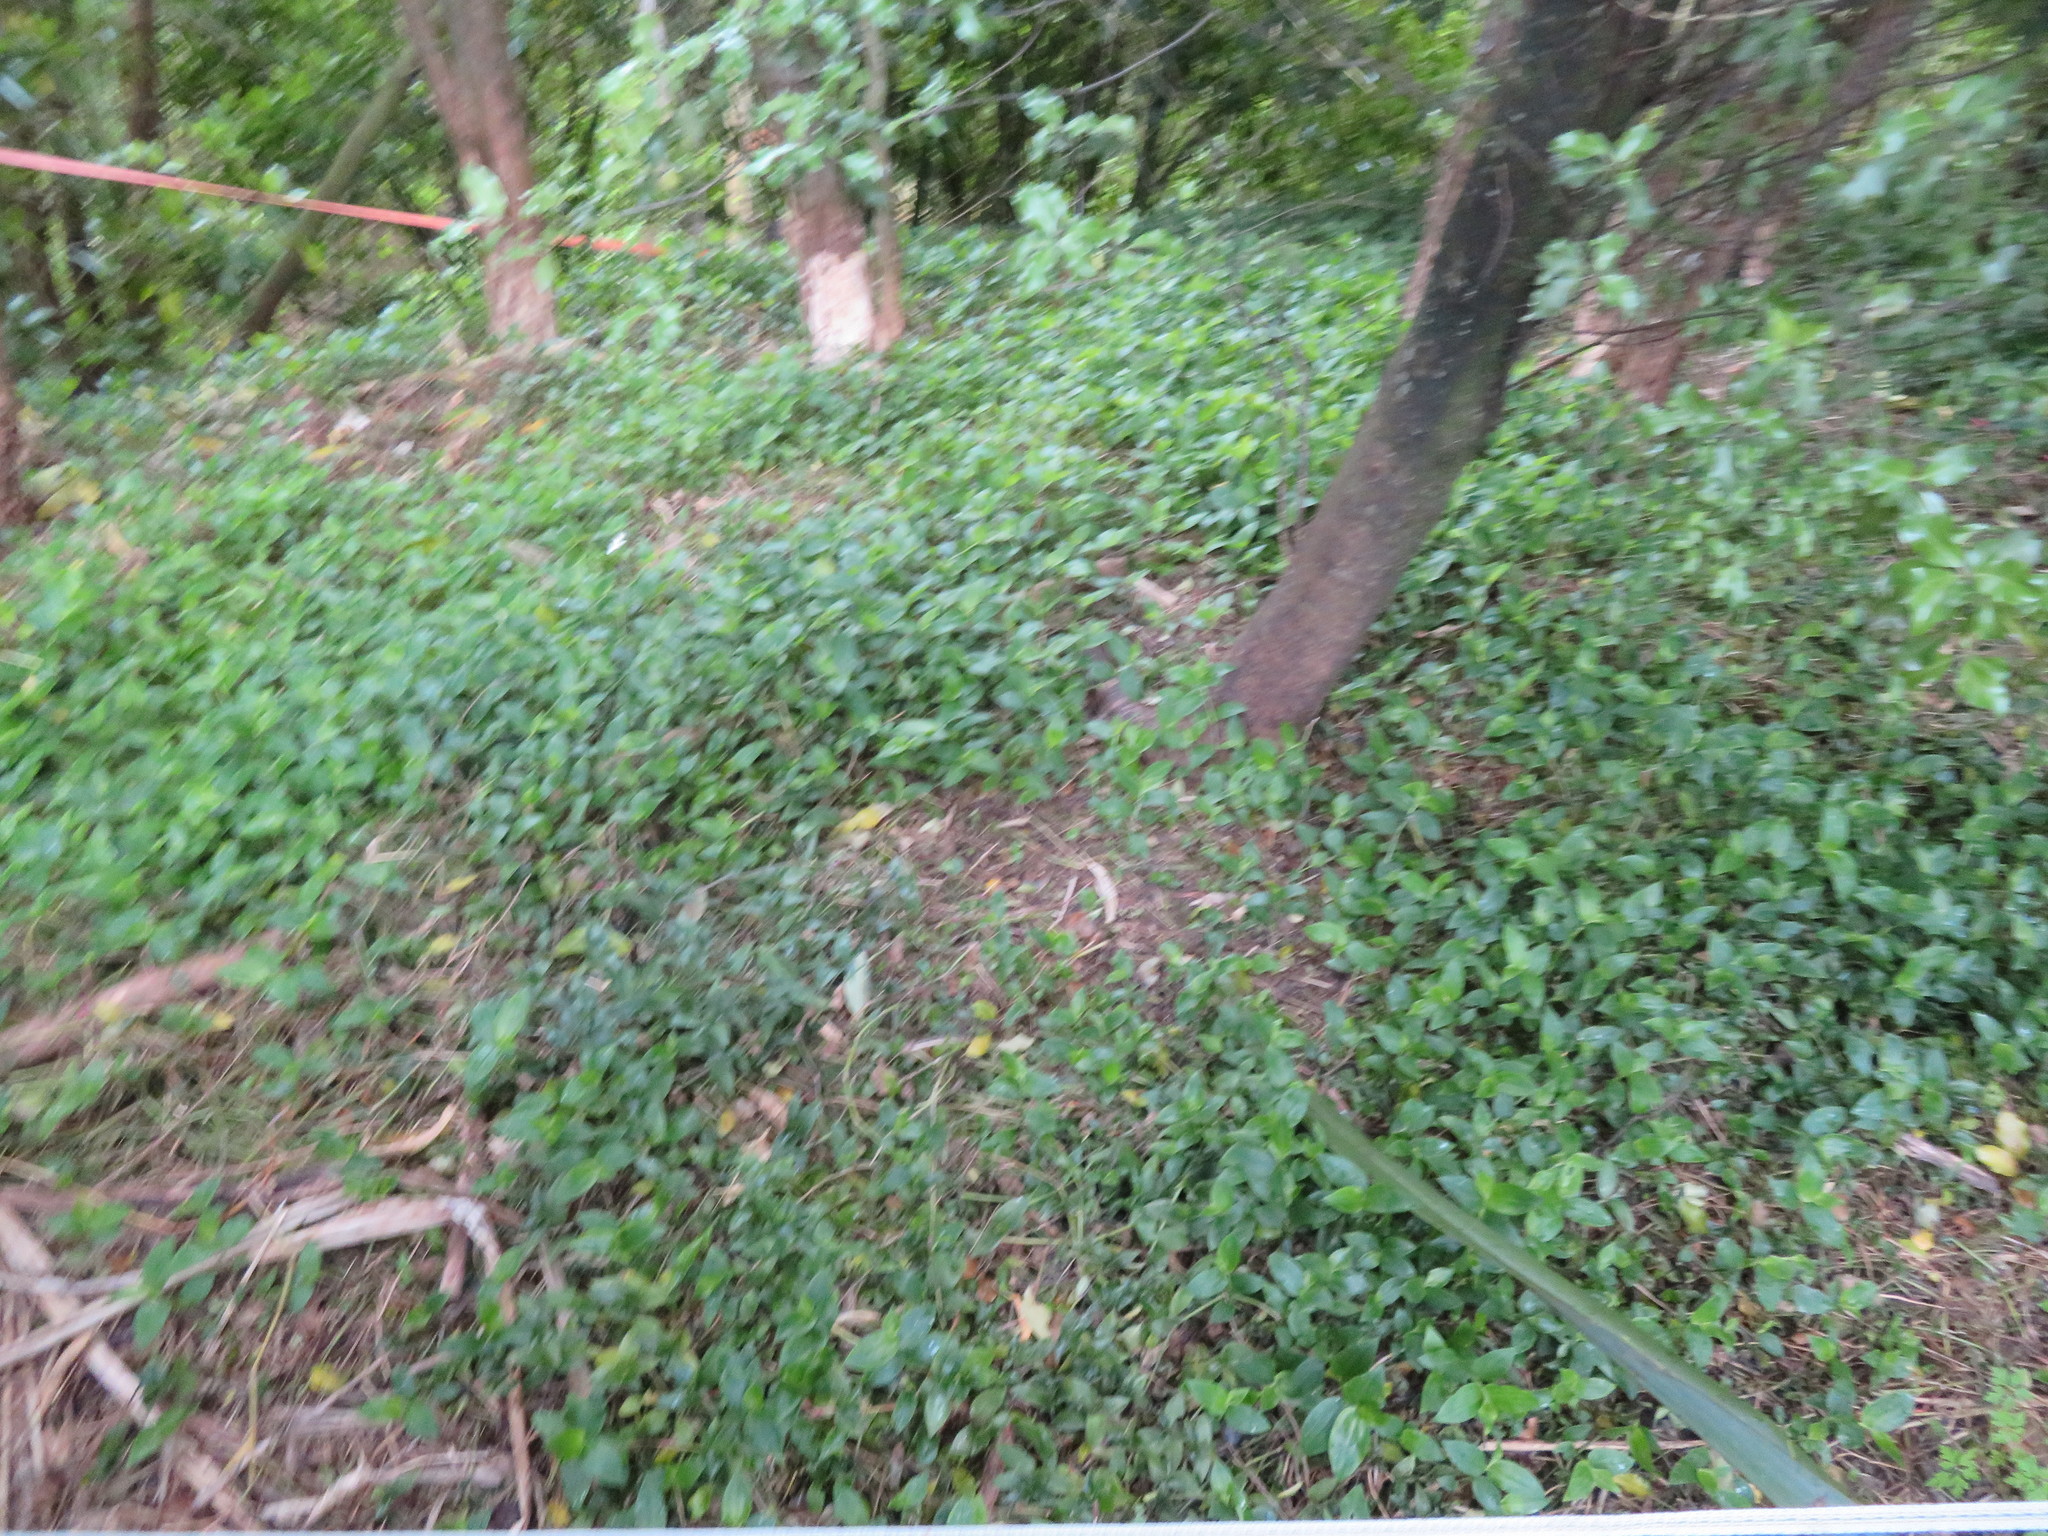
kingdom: Plantae
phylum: Tracheophyta
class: Magnoliopsida
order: Apiales
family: Pittosporaceae
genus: Pittosporum
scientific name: Pittosporum tenuifolium
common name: Kohuhu
